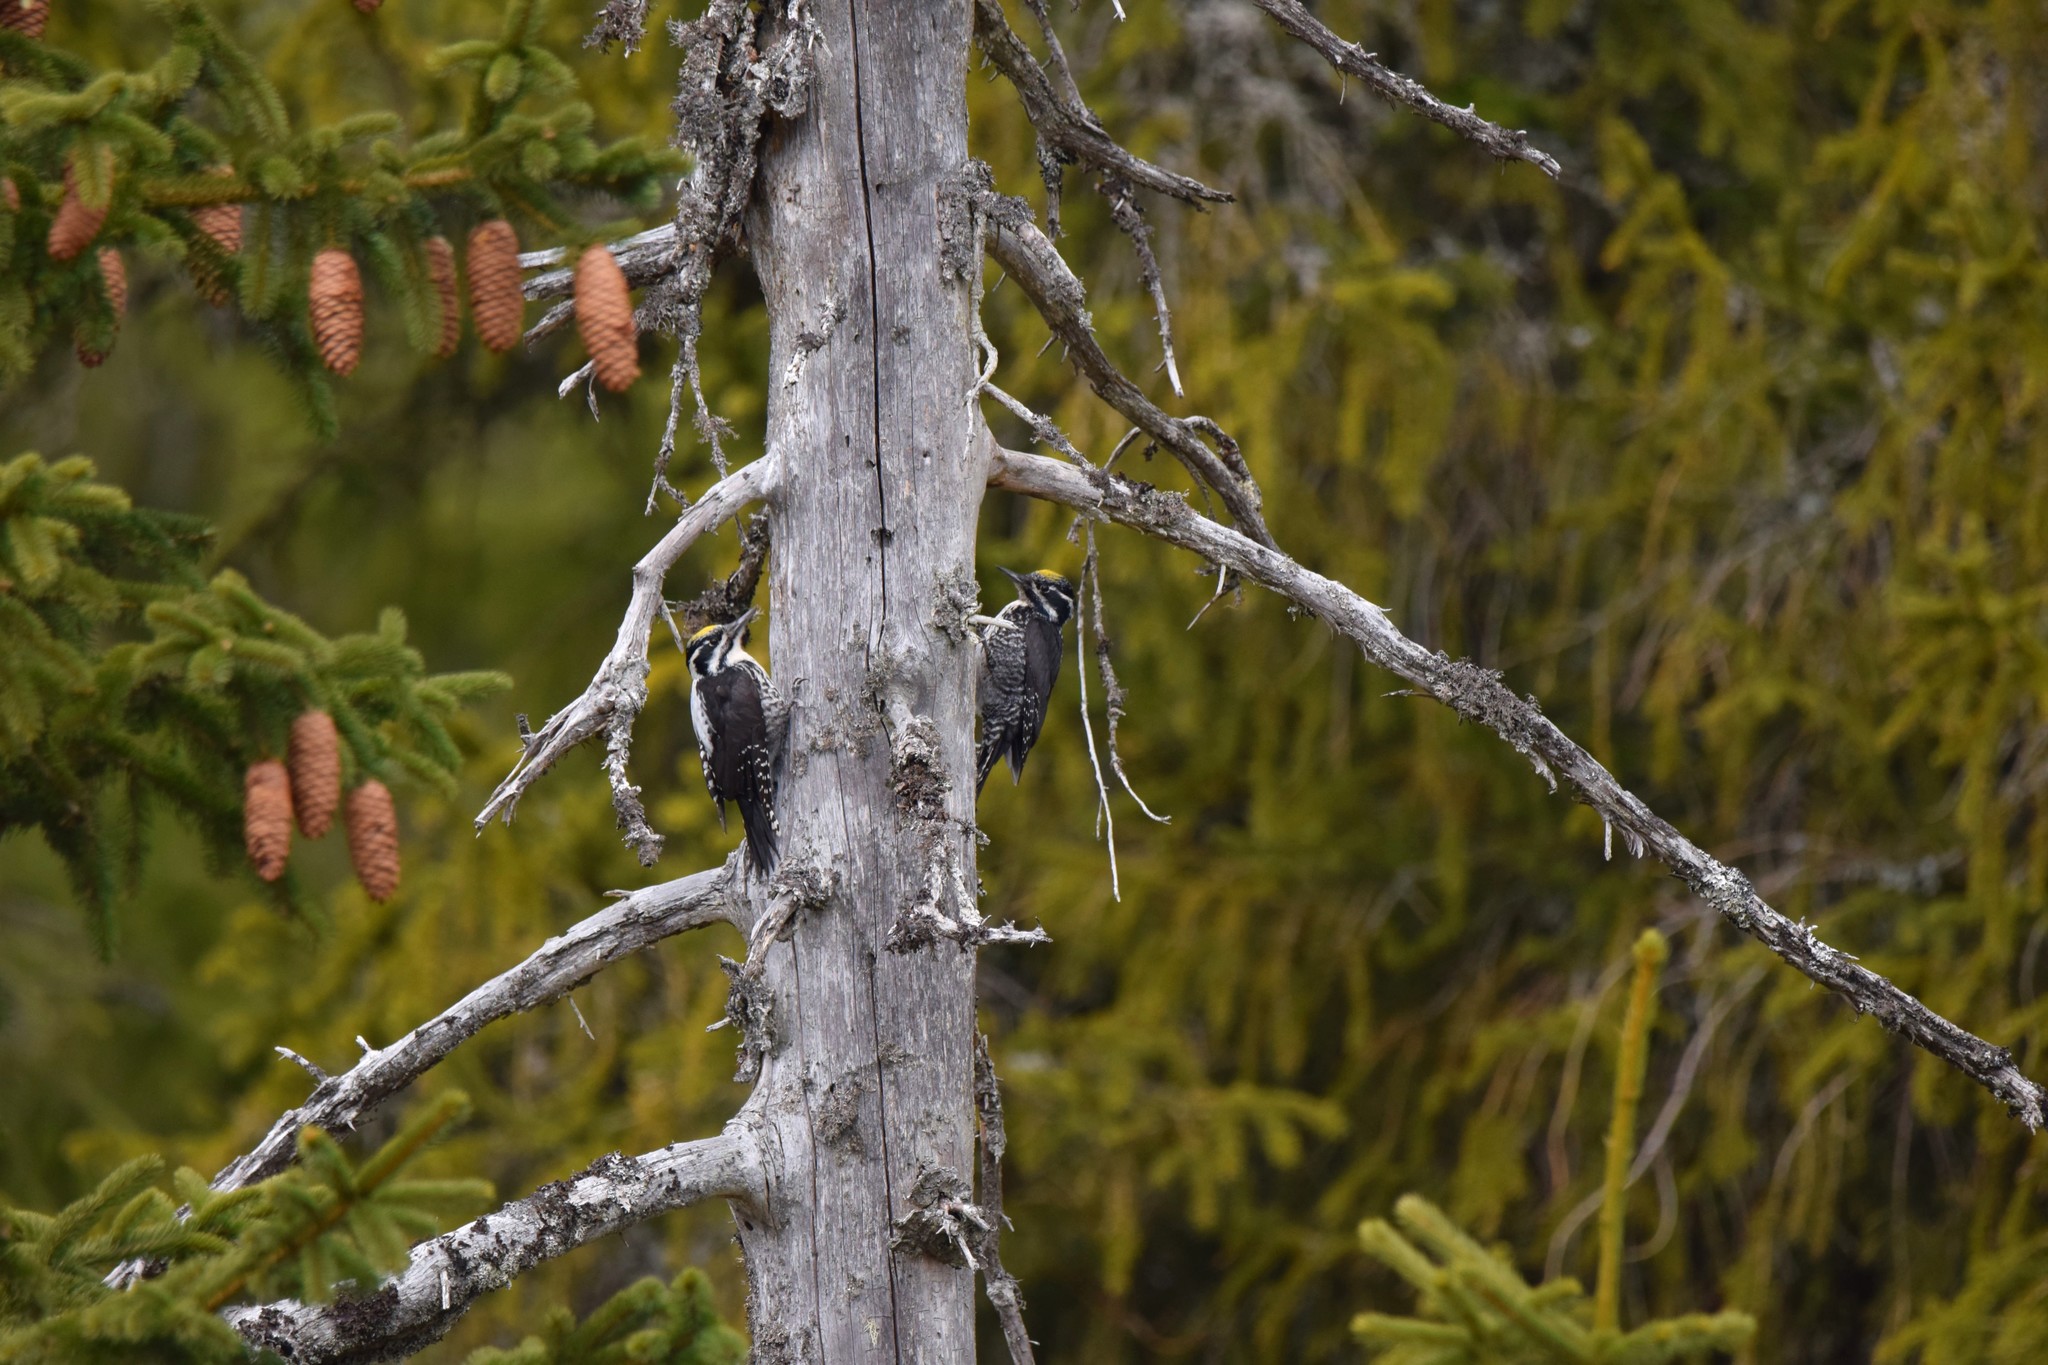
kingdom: Animalia
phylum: Chordata
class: Aves
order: Piciformes
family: Picidae
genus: Picoides
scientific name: Picoides tridactylus
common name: Eurasian three-toed woodpecker
